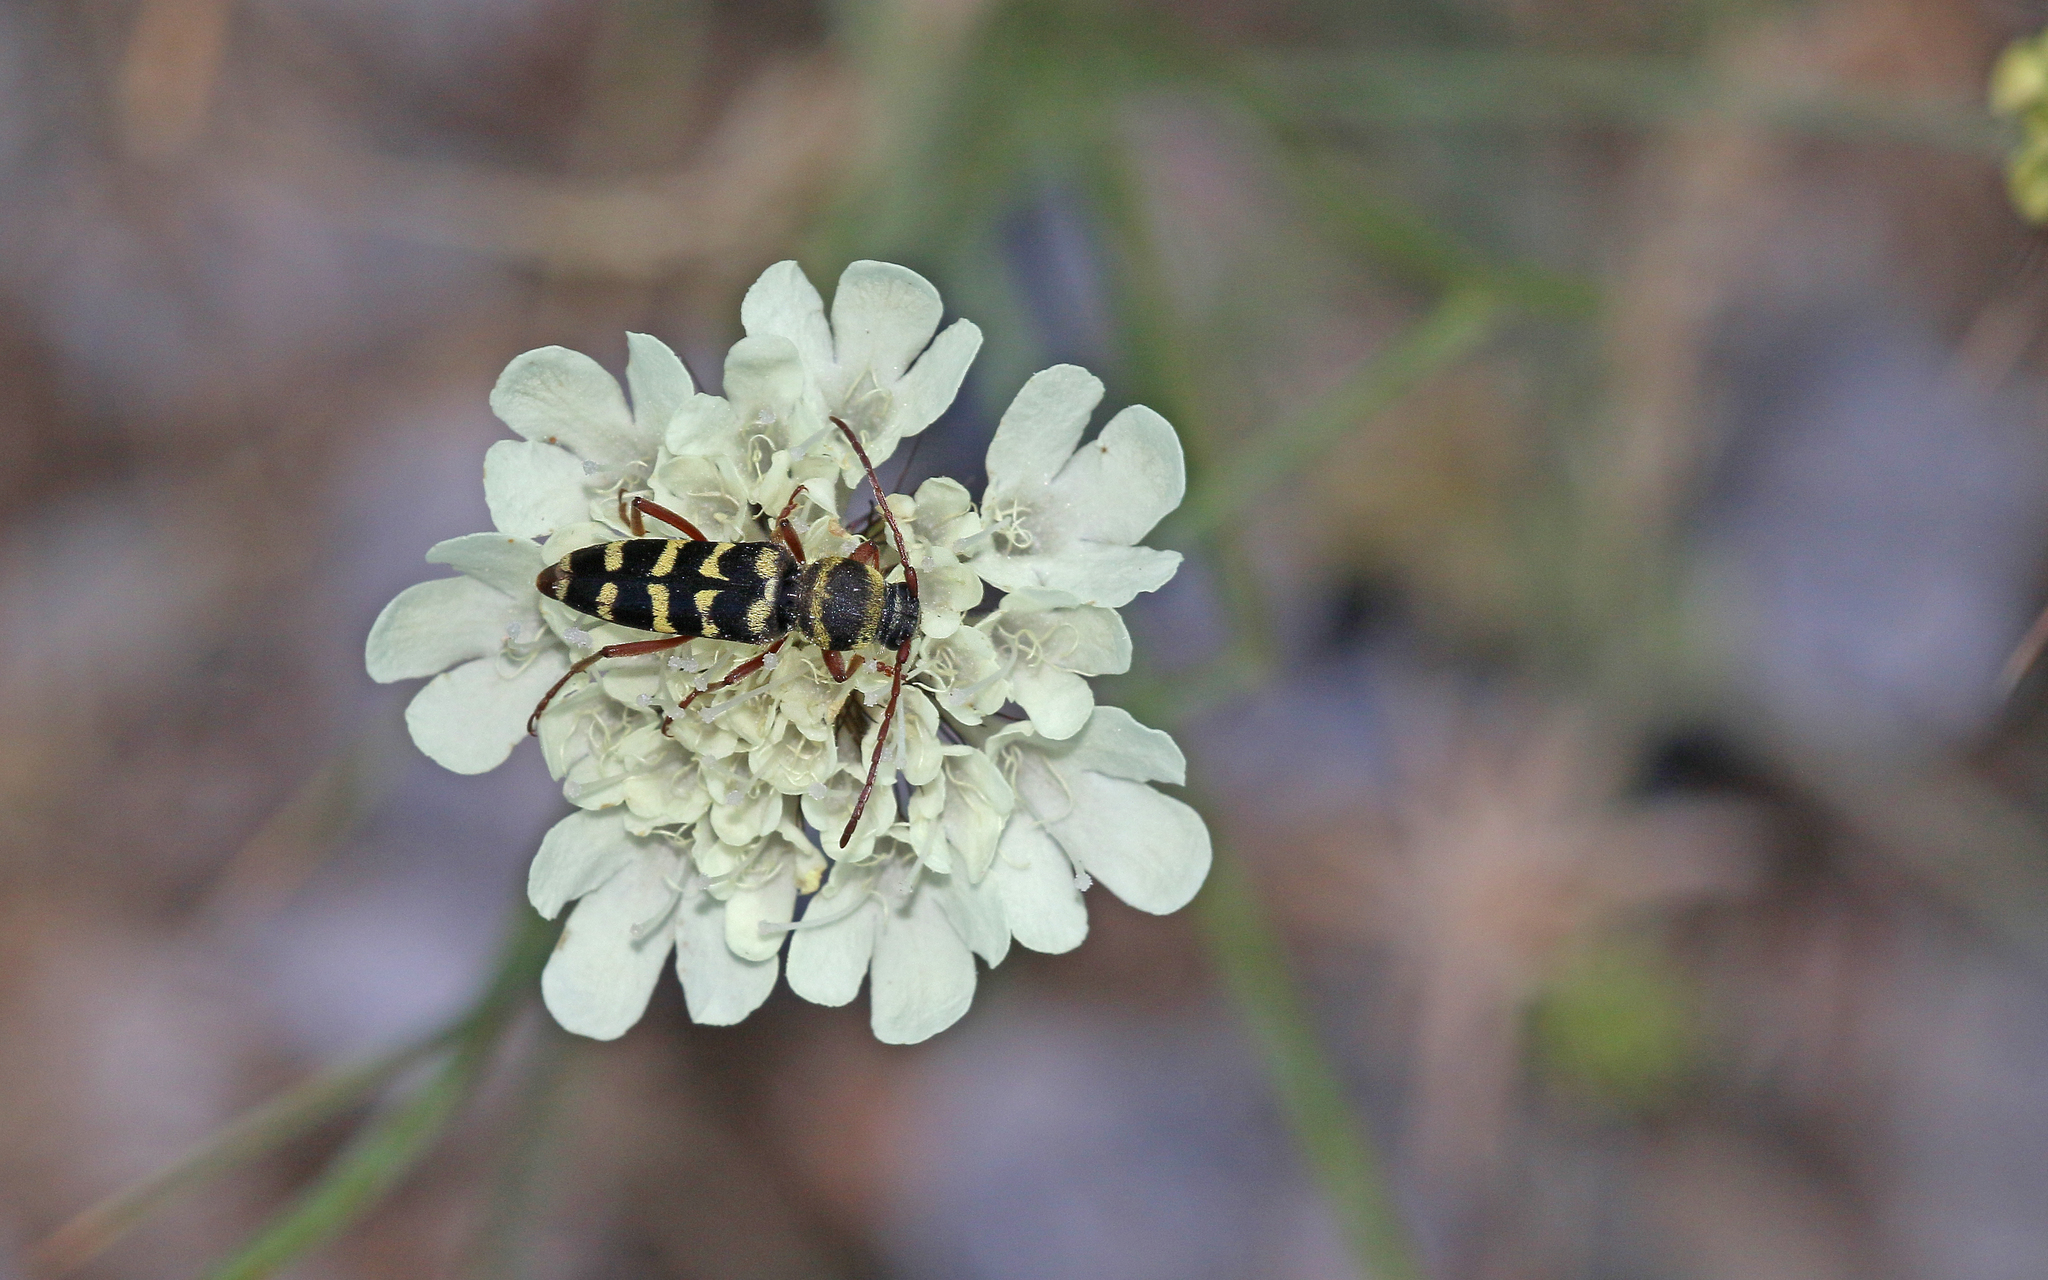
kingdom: Animalia
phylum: Arthropoda
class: Insecta
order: Coleoptera
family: Cerambycidae
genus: Plagionotus
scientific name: Plagionotus floralis
